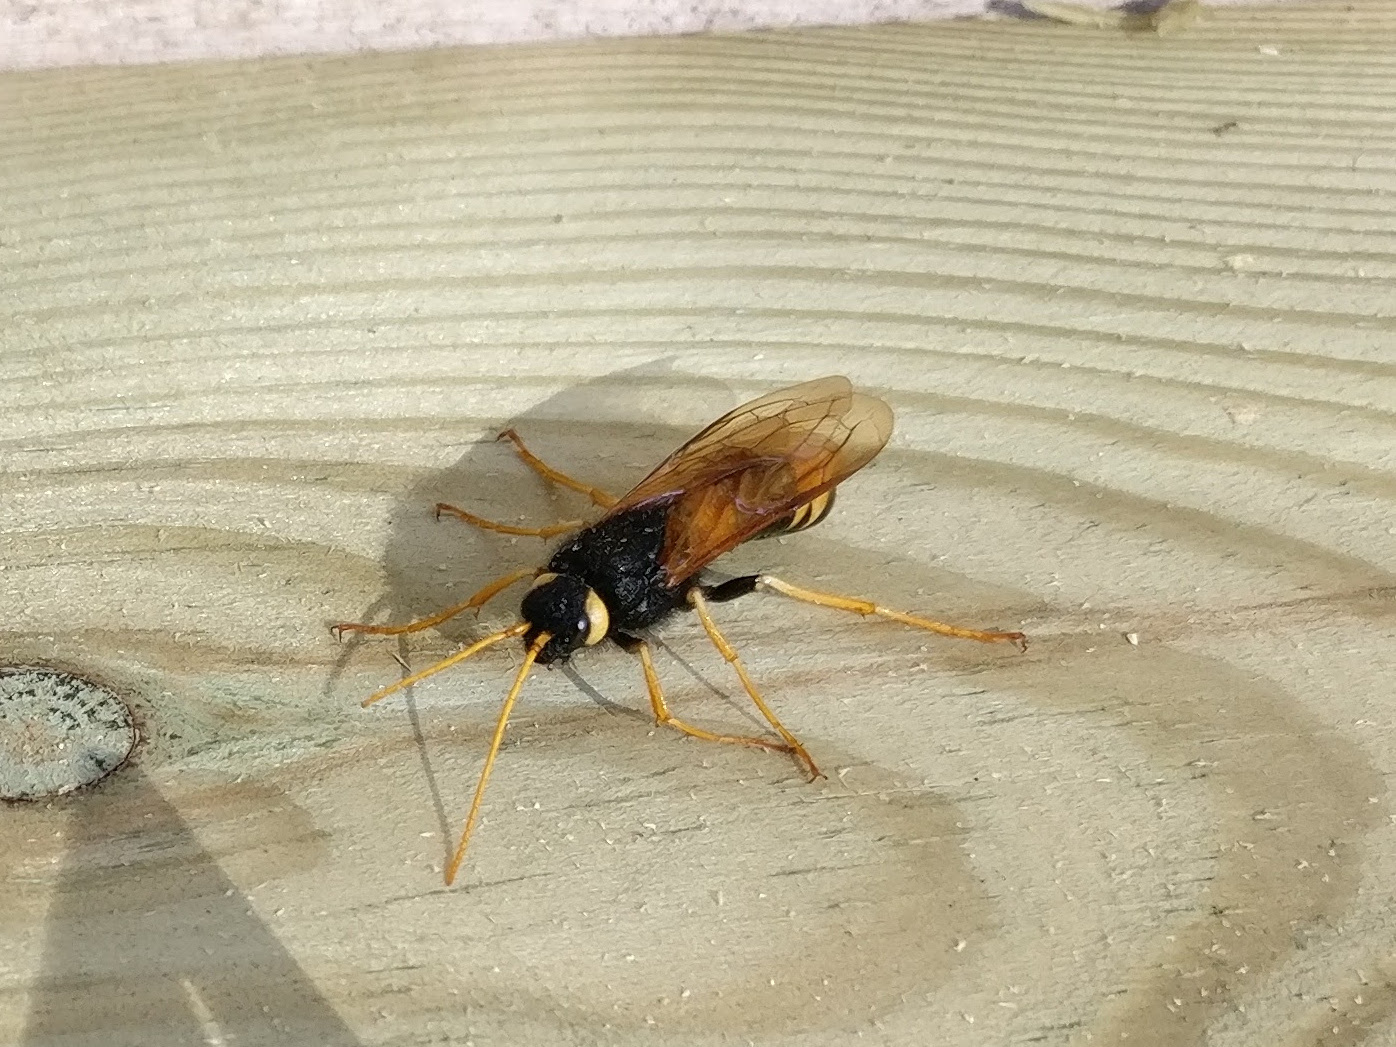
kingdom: Animalia
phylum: Arthropoda
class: Insecta
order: Hymenoptera
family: Siricidae
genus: Urocerus
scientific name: Urocerus gigas
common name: Giant woodwasp
